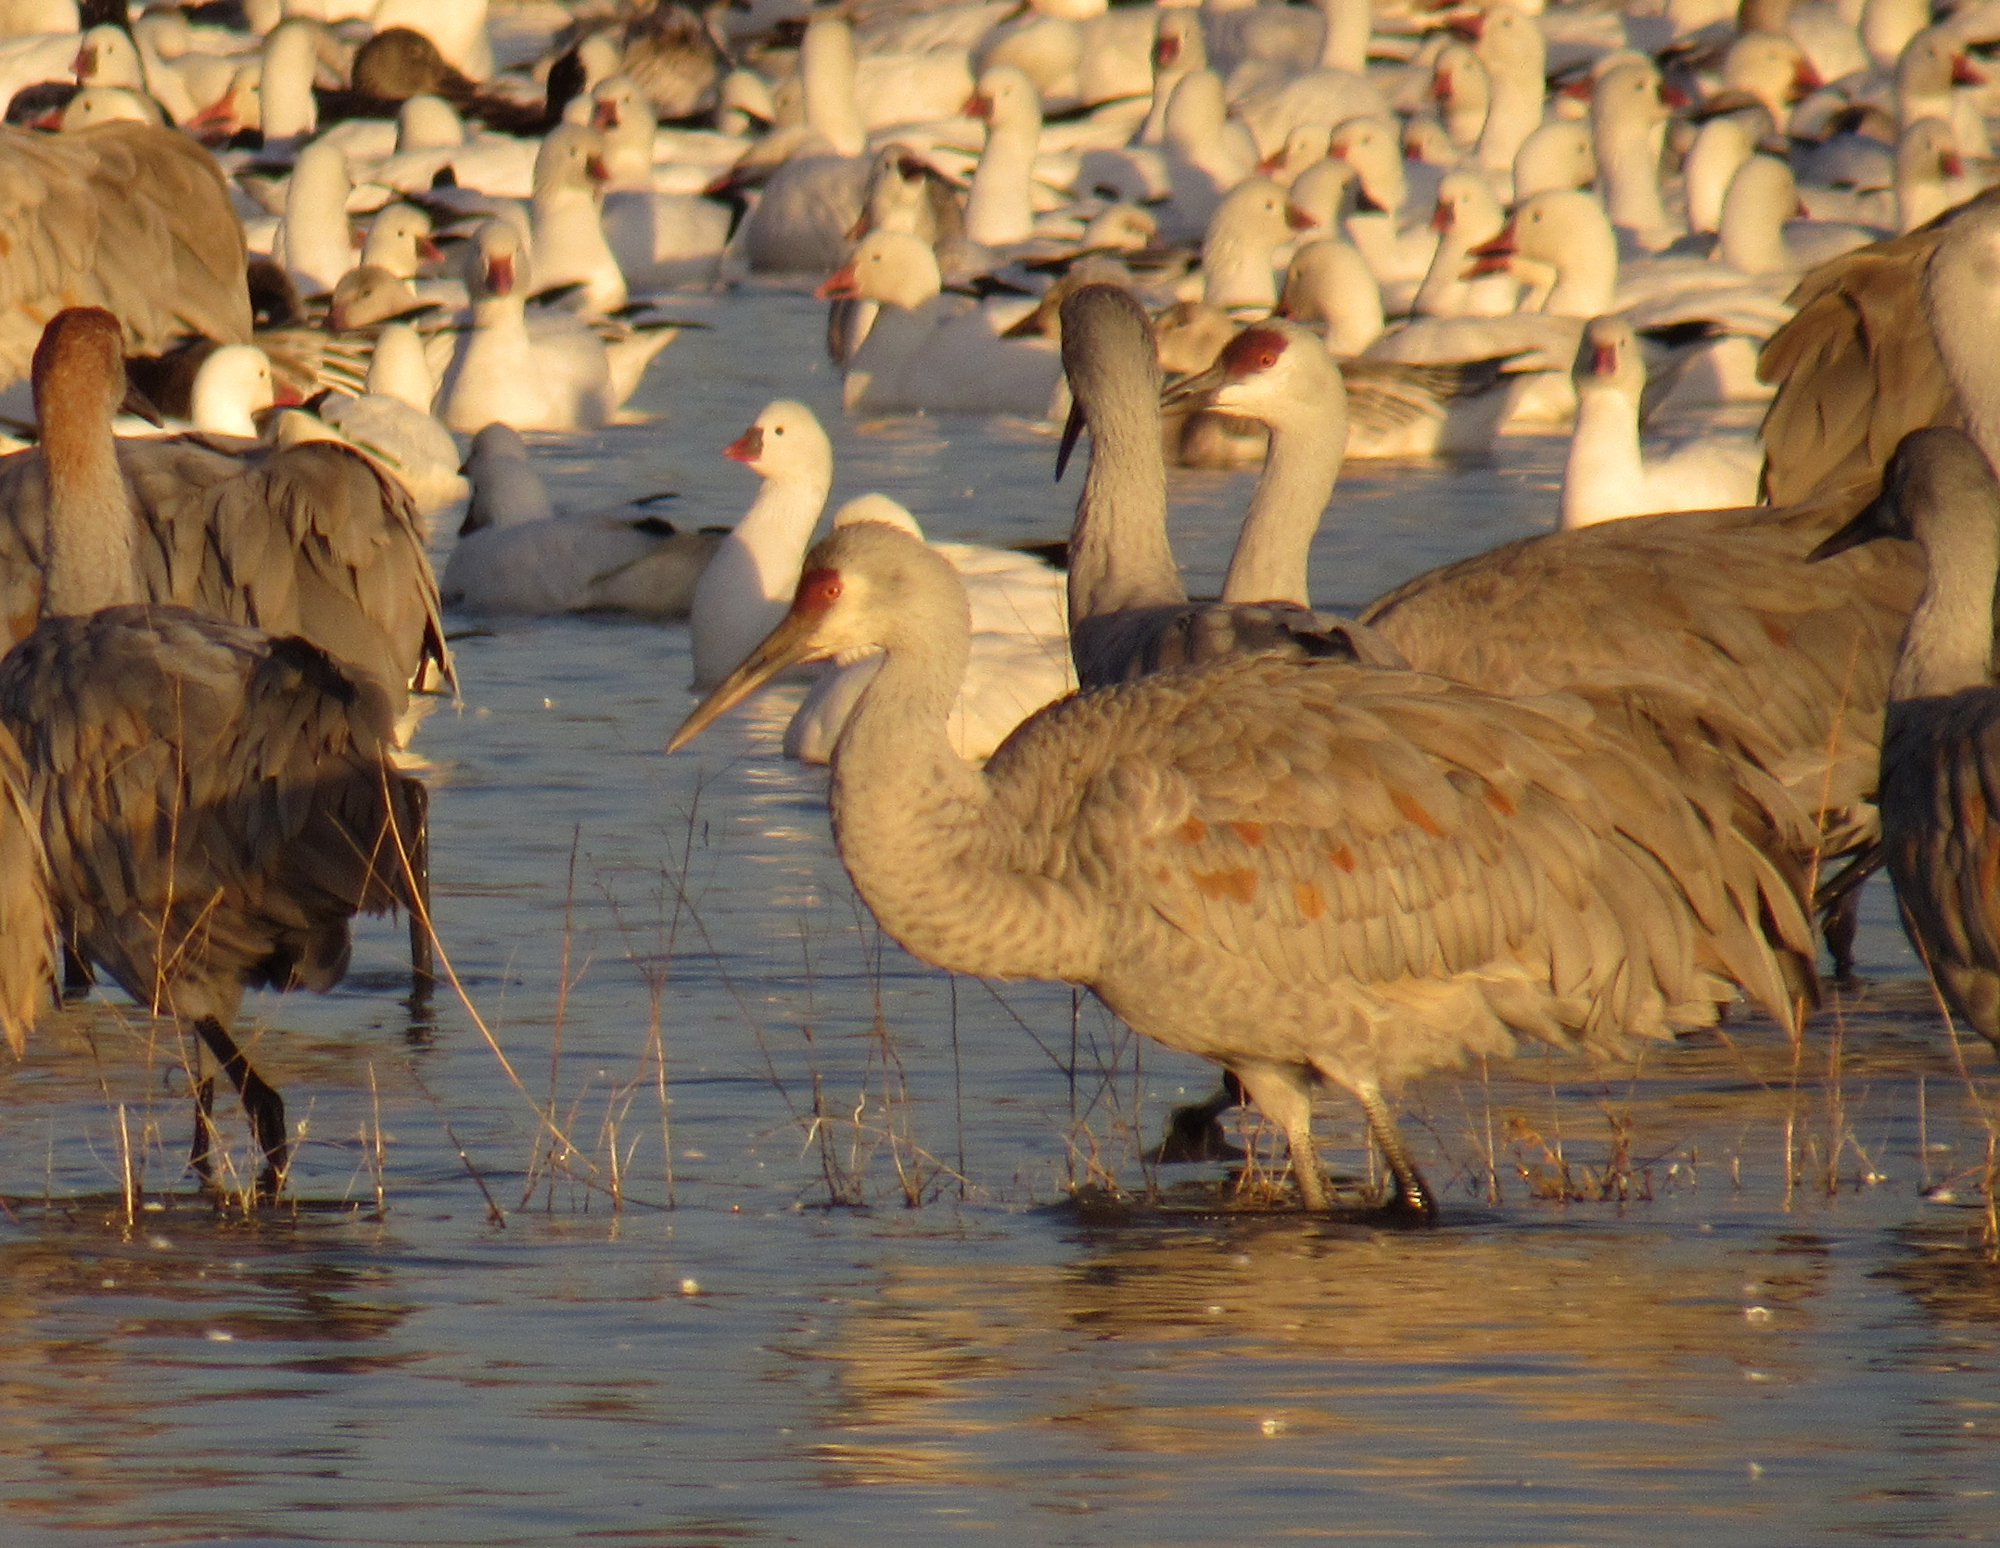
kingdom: Animalia
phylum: Chordata
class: Aves
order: Gruiformes
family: Gruidae
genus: Grus
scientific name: Grus canadensis
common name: Sandhill crane
